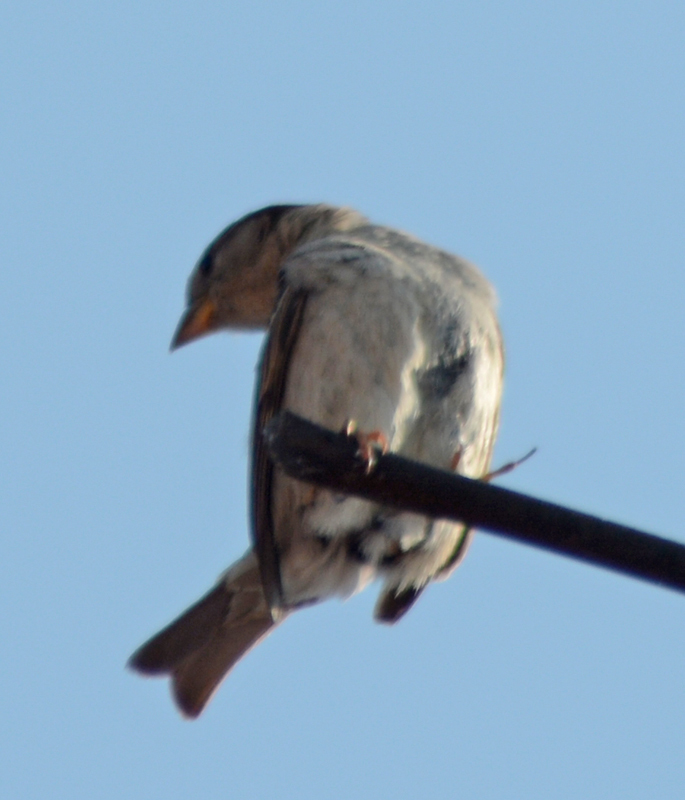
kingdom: Animalia
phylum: Chordata
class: Aves
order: Passeriformes
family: Passeridae
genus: Passer
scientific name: Passer domesticus
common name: House sparrow
